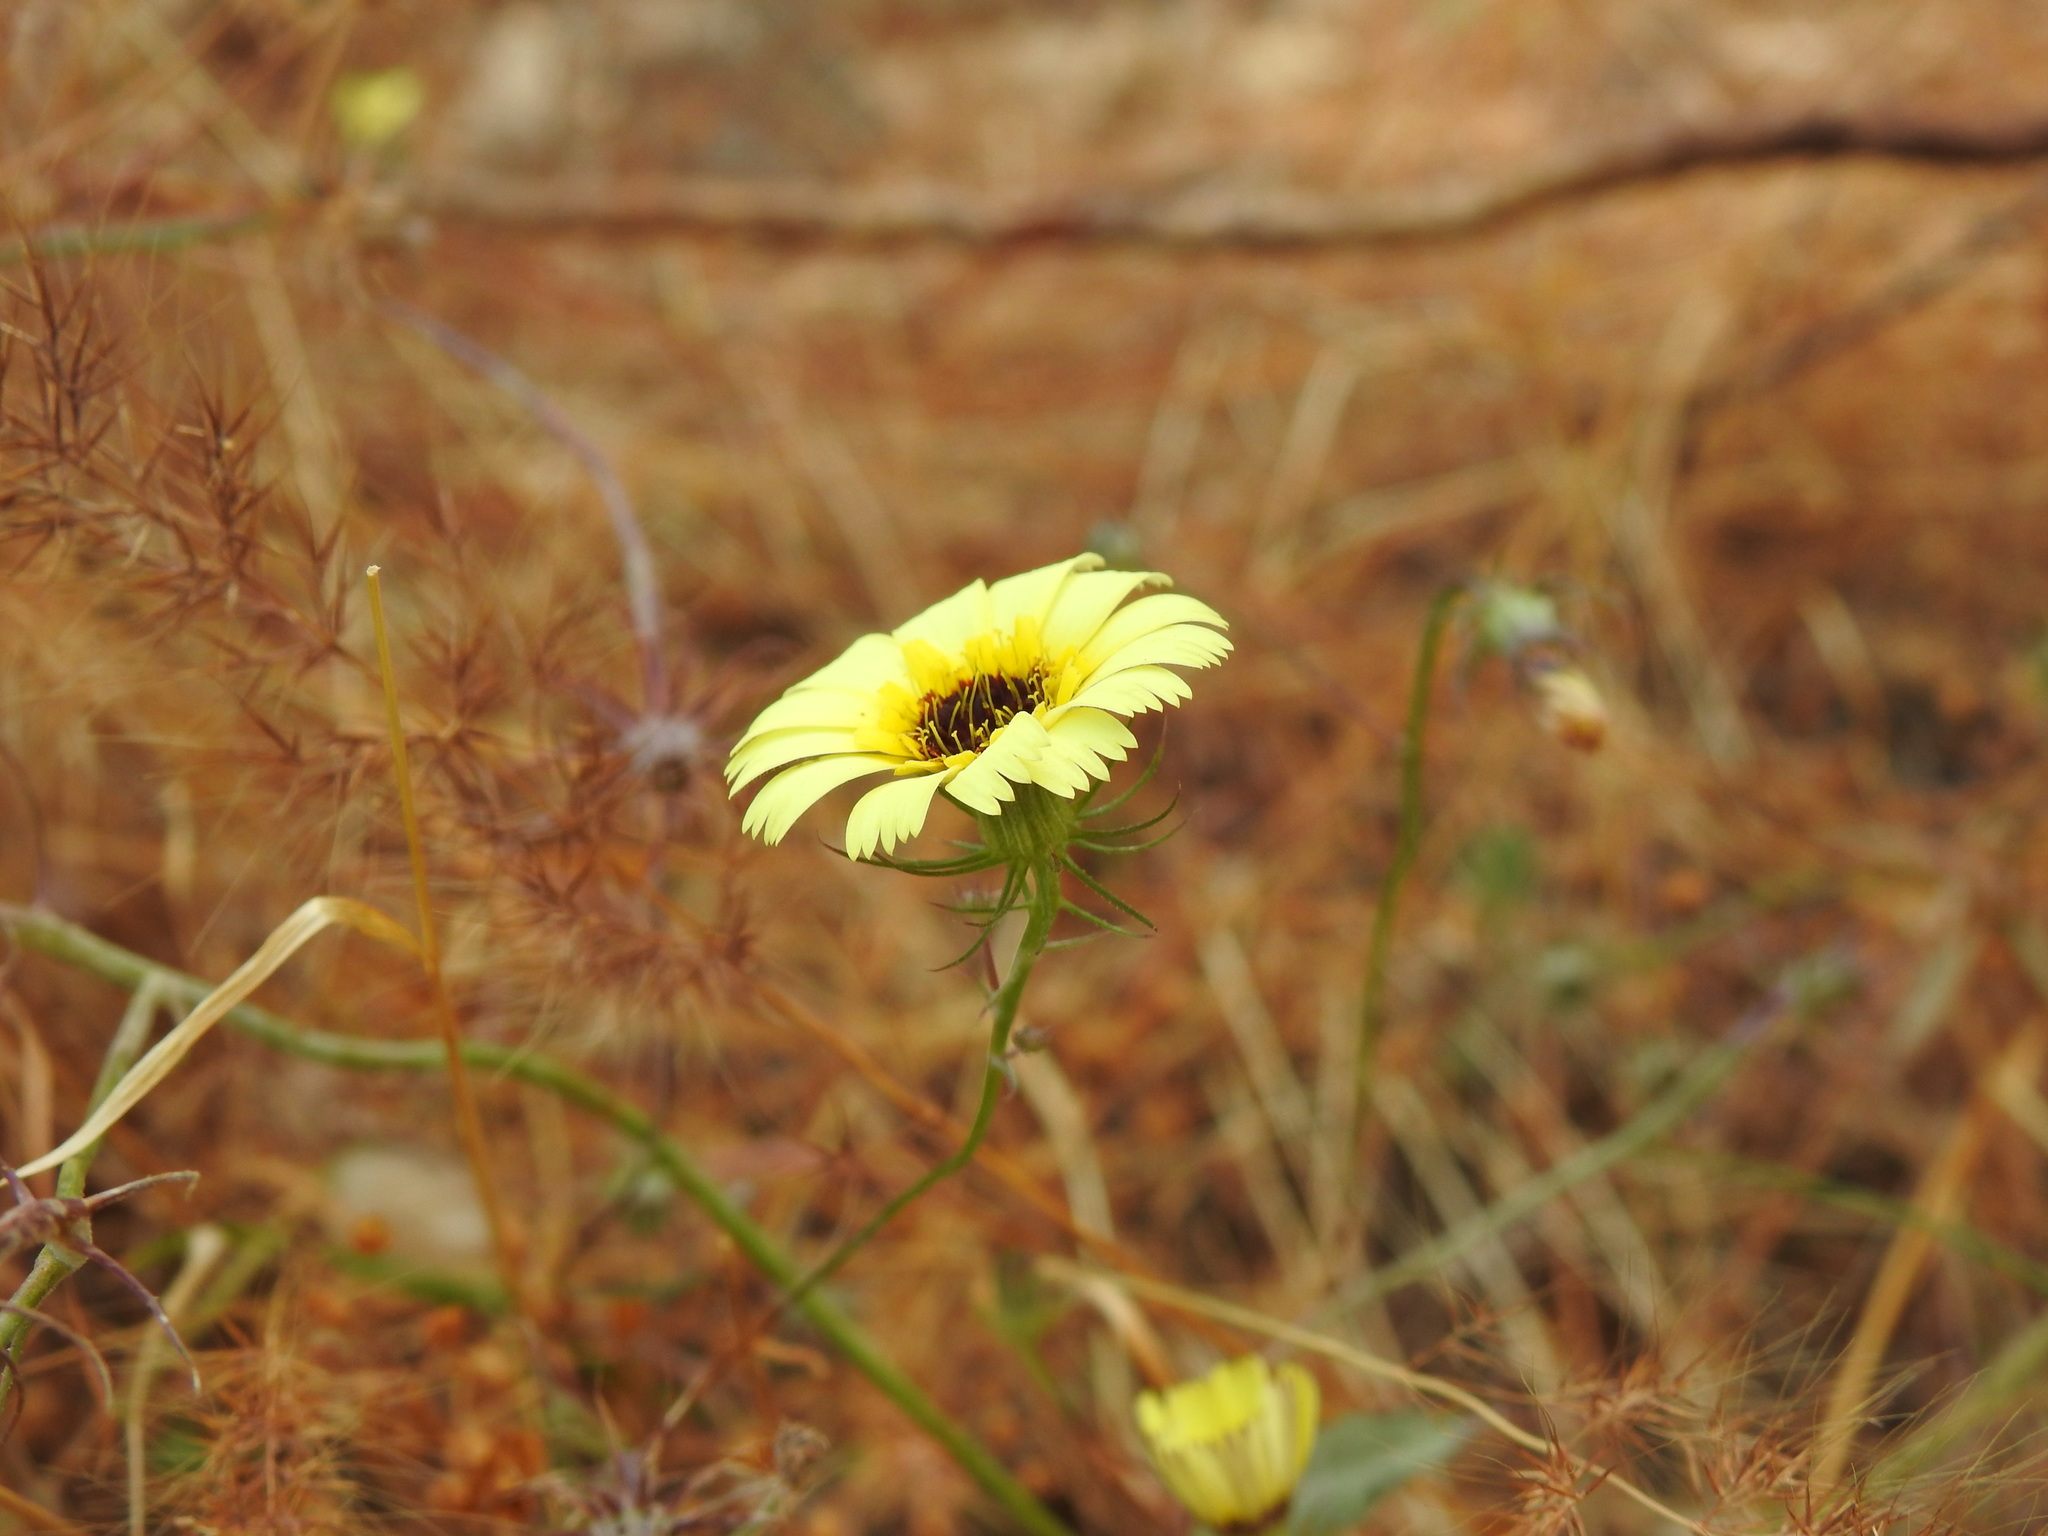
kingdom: Plantae
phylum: Tracheophyta
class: Magnoliopsida
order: Asterales
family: Asteraceae
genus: Tolpis
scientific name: Tolpis barbata
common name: Yellow hawkweed
